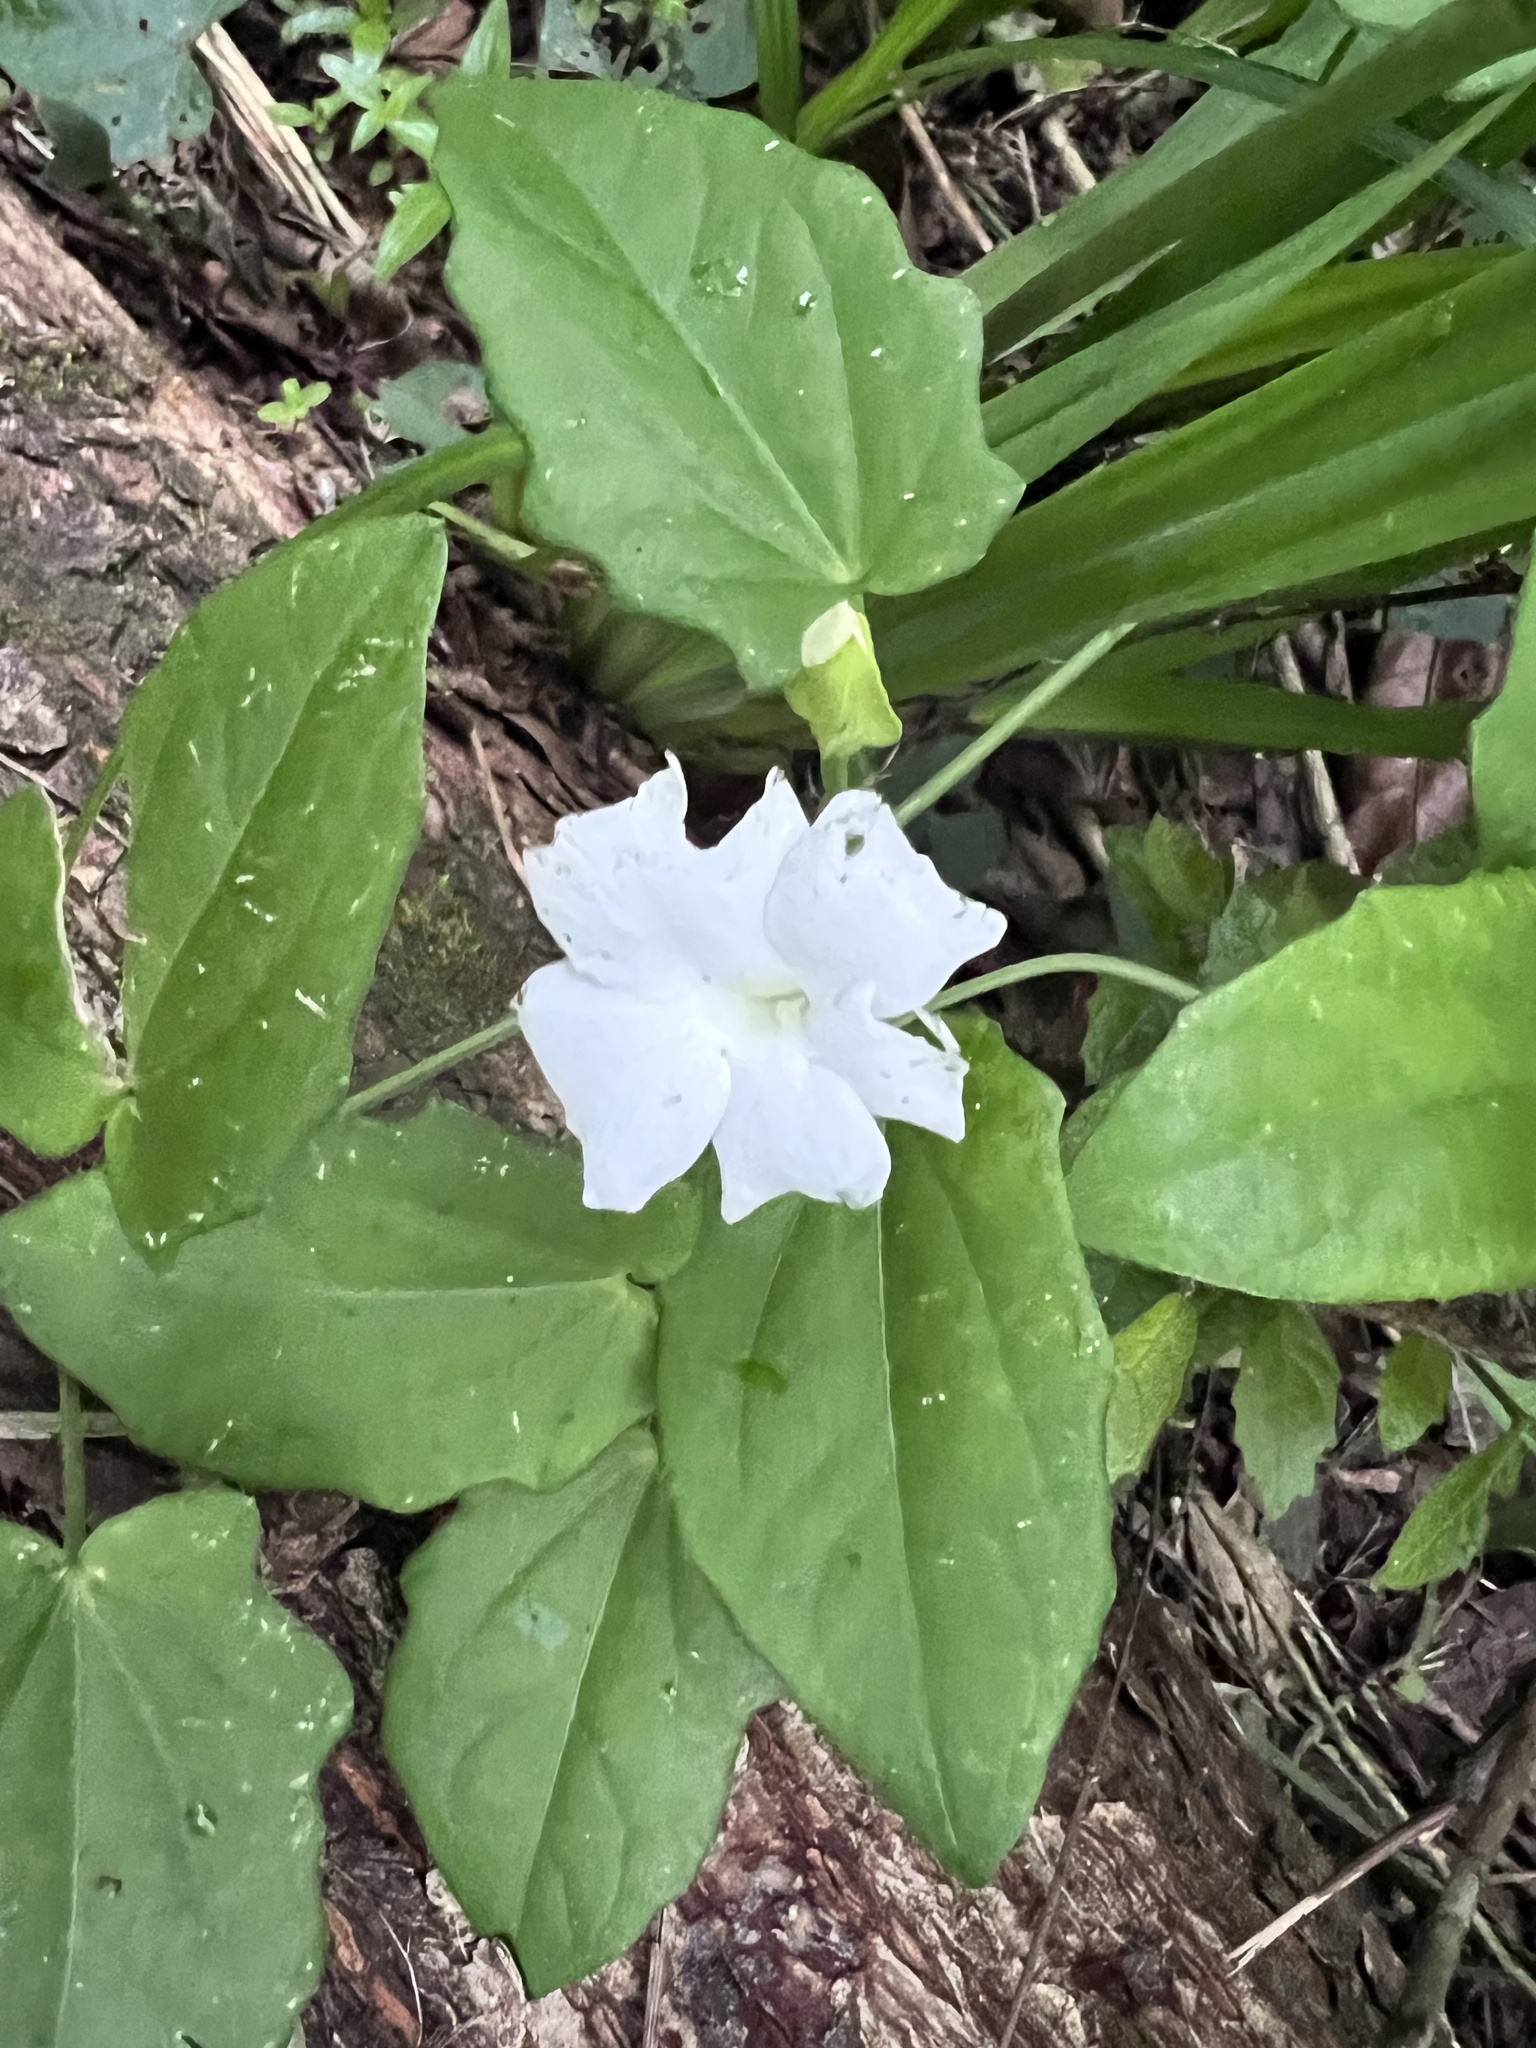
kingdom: Plantae
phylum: Tracheophyta
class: Magnoliopsida
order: Lamiales
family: Acanthaceae
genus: Thunbergia
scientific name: Thunbergia fragrans
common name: Whitelady
